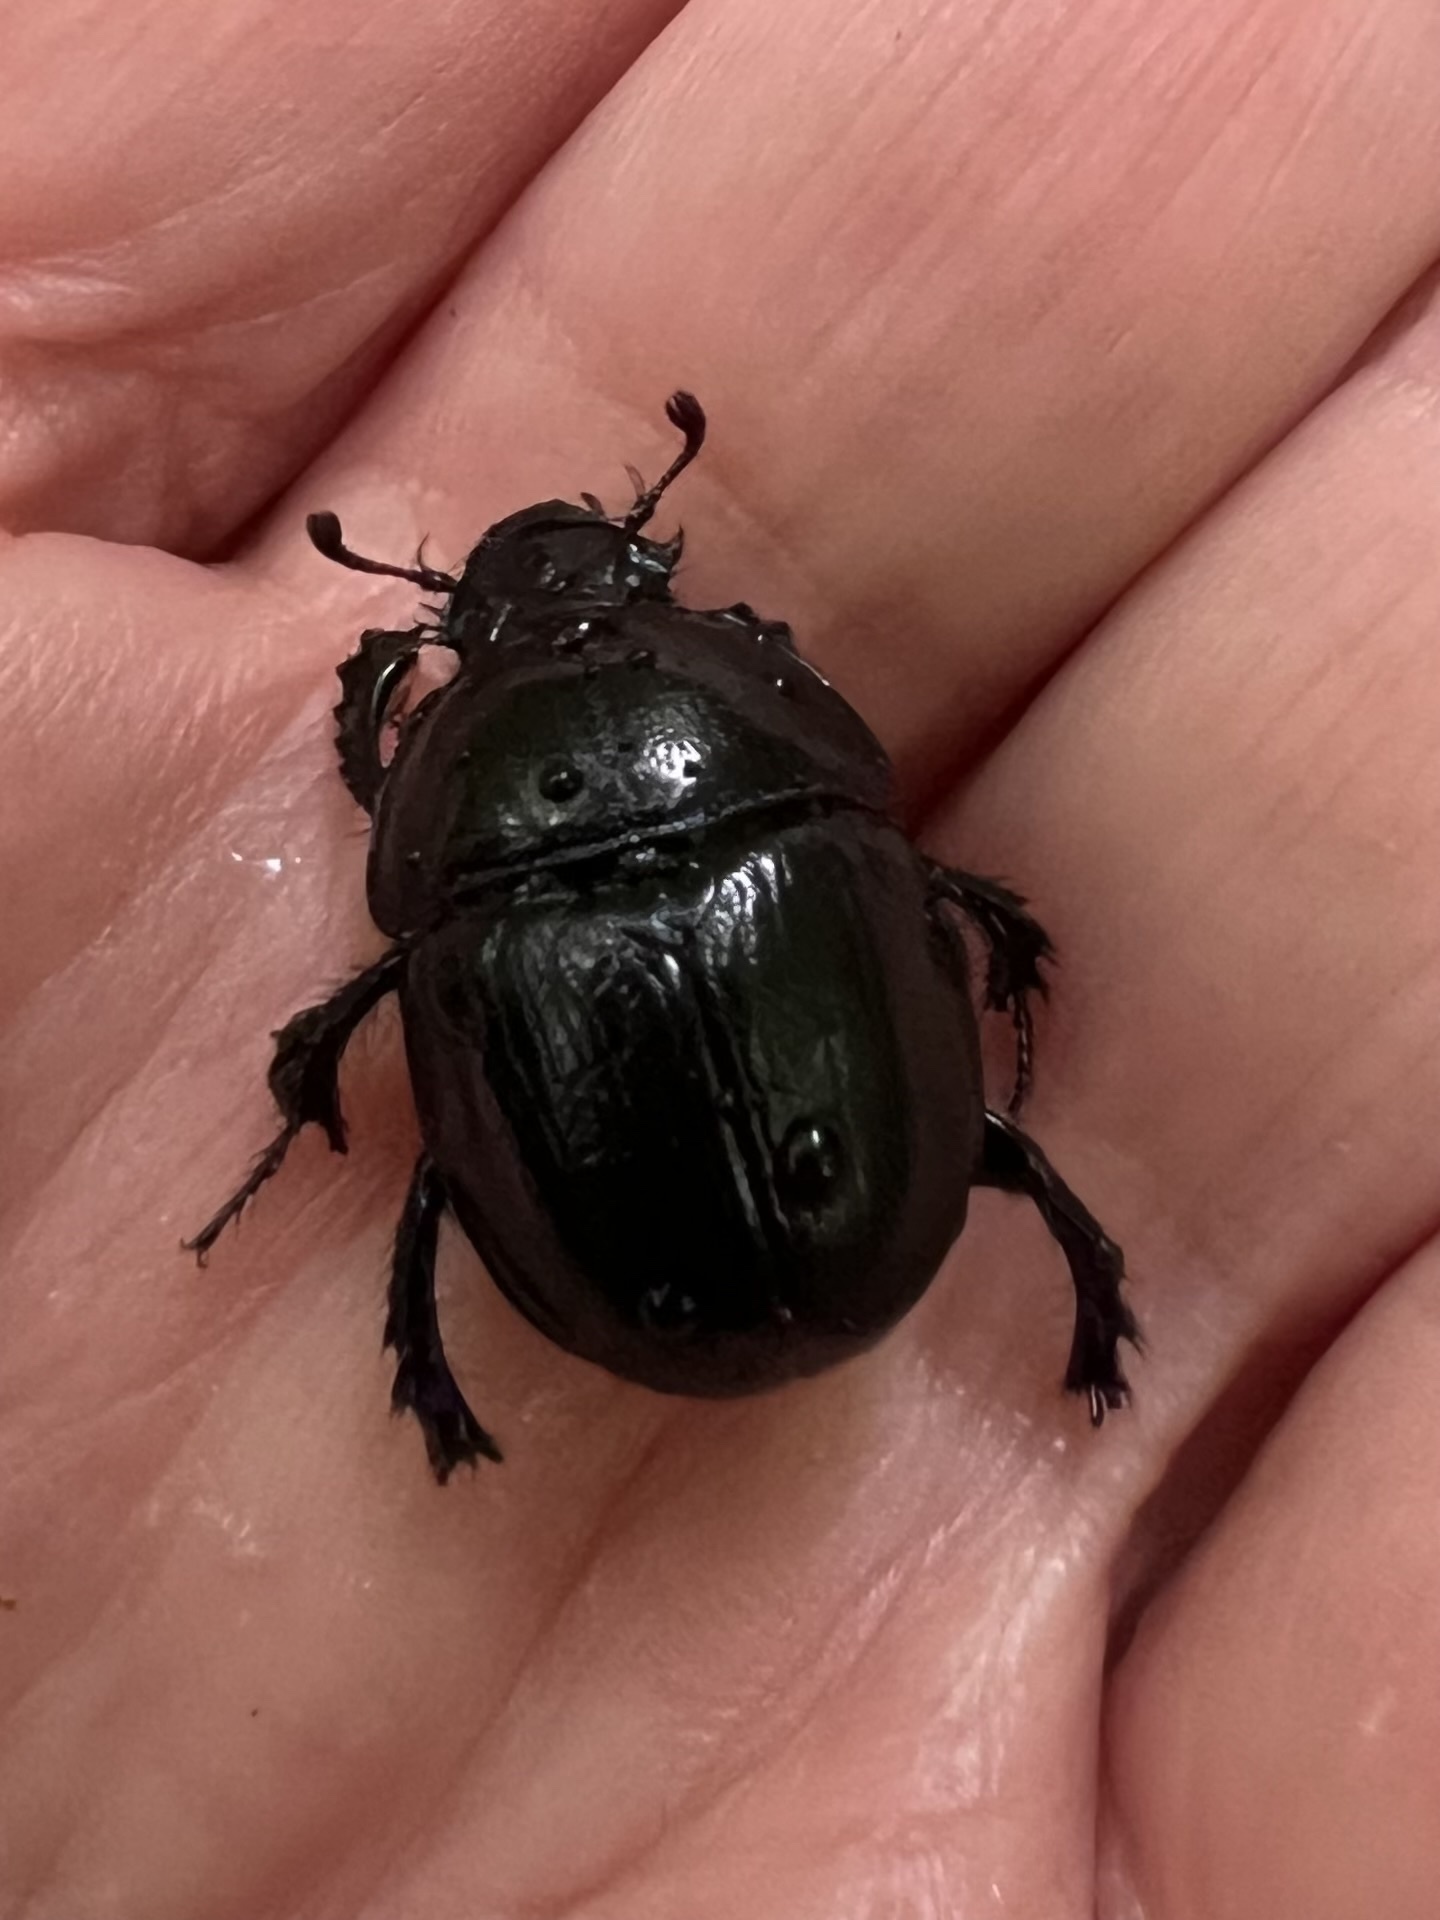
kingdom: Animalia
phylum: Arthropoda
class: Insecta
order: Coleoptera
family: Geotrupidae
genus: Anoplotrupes
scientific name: Anoplotrupes stercorosus
